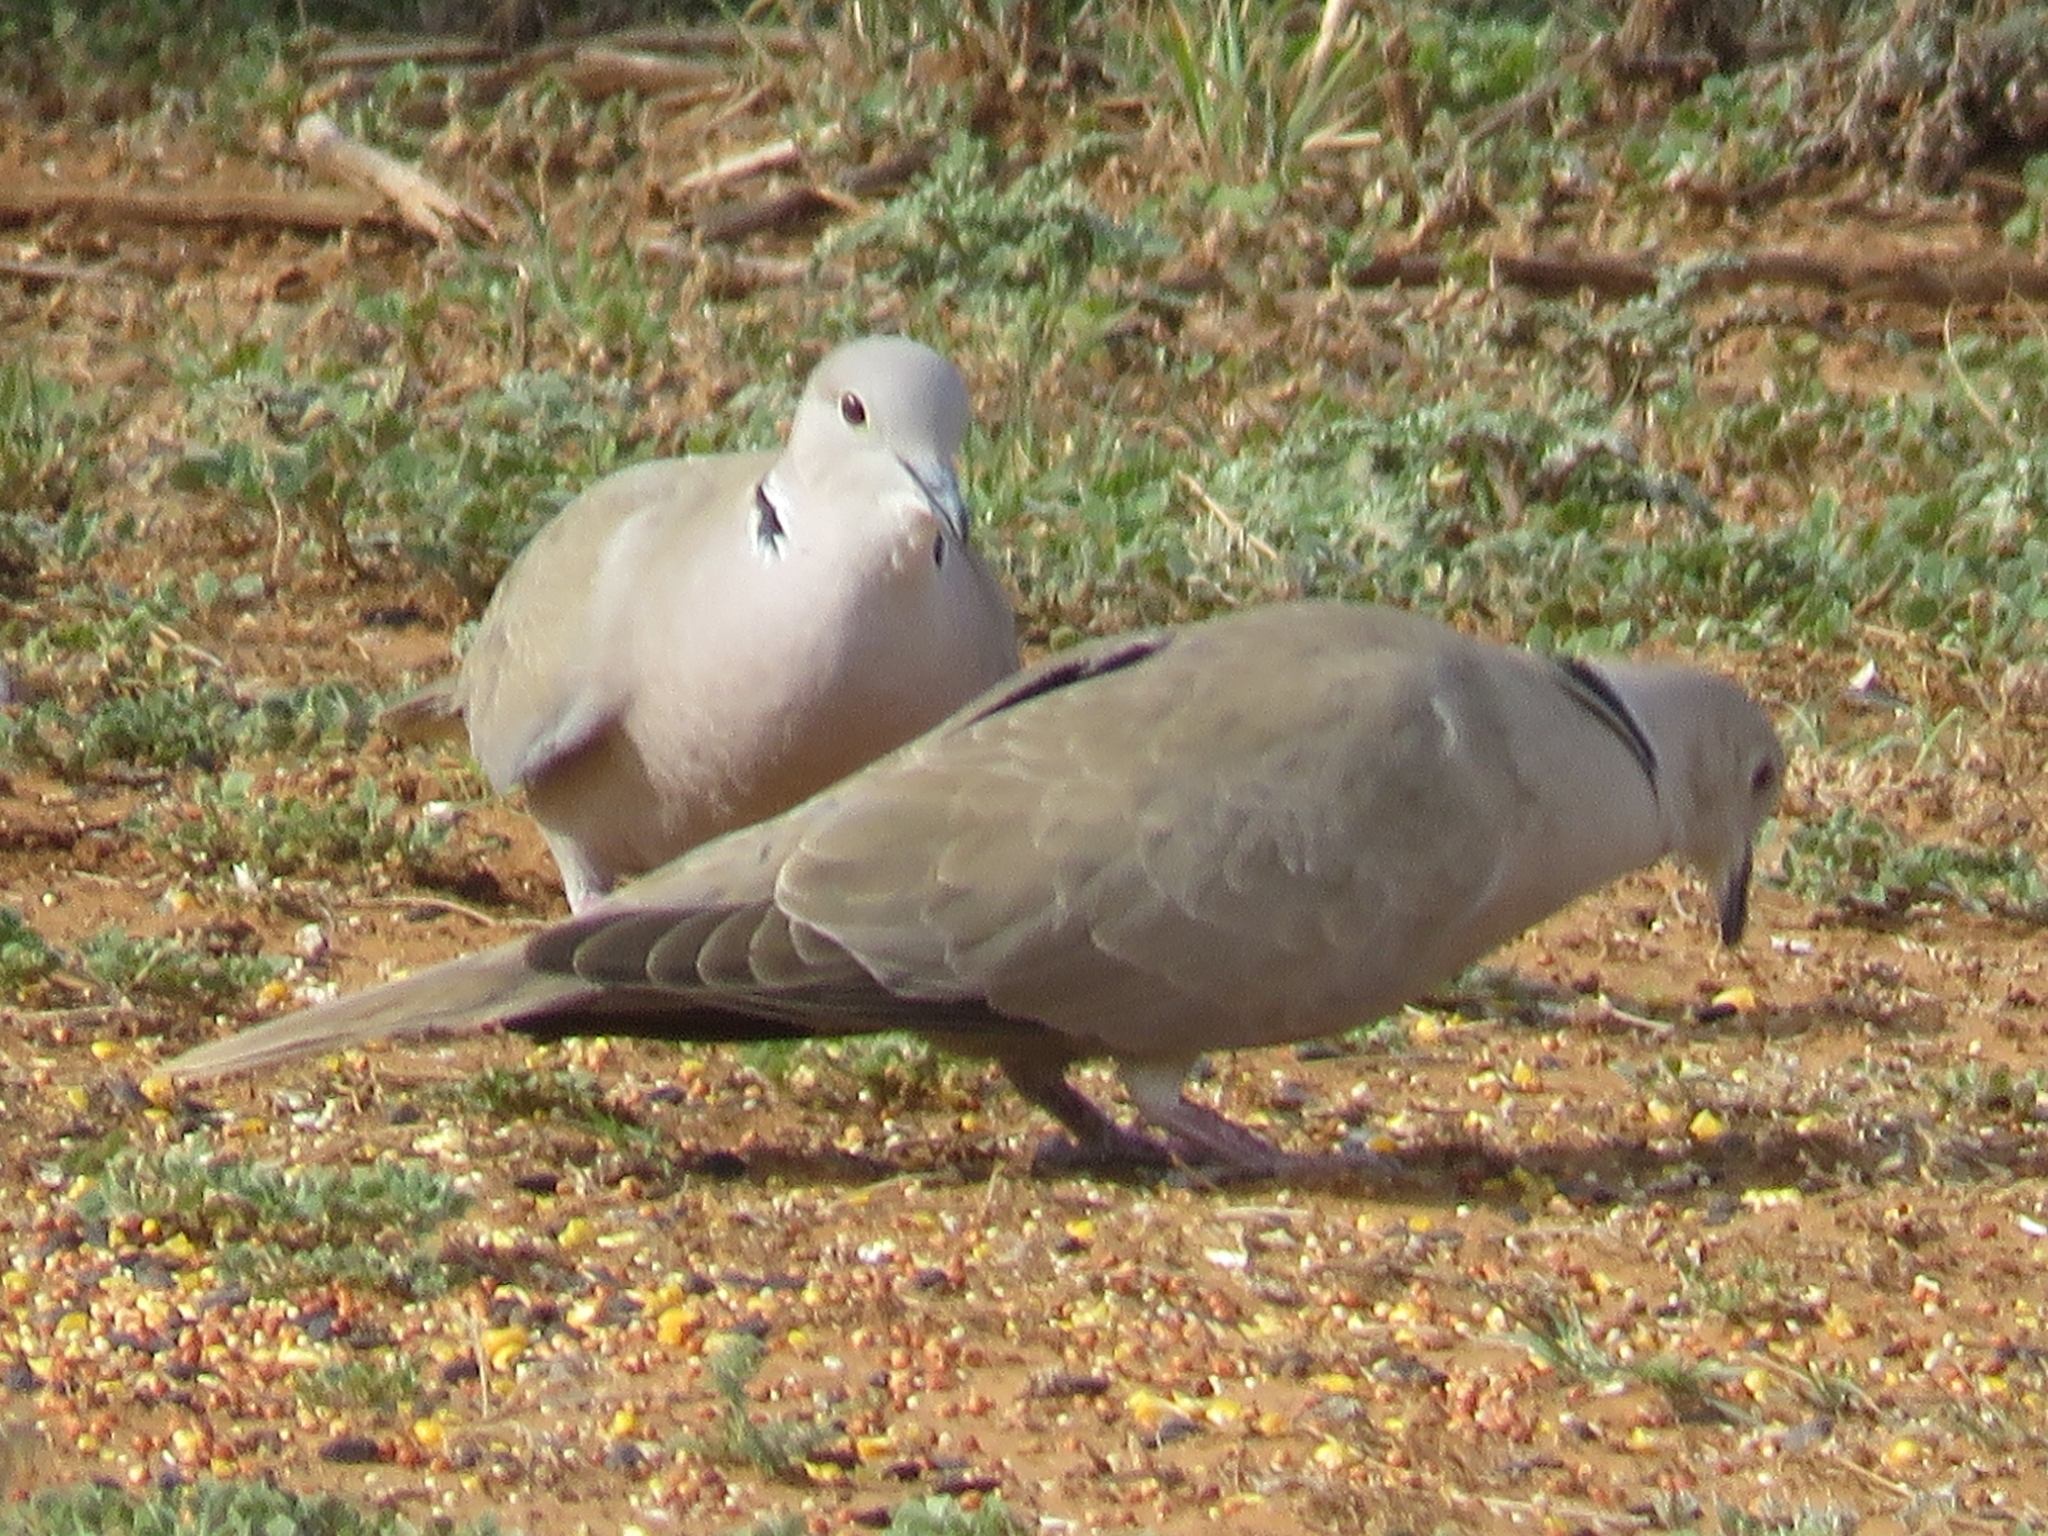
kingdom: Animalia
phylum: Chordata
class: Aves
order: Columbiformes
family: Columbidae
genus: Streptopelia
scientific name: Streptopelia decaocto
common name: Eurasian collared dove
